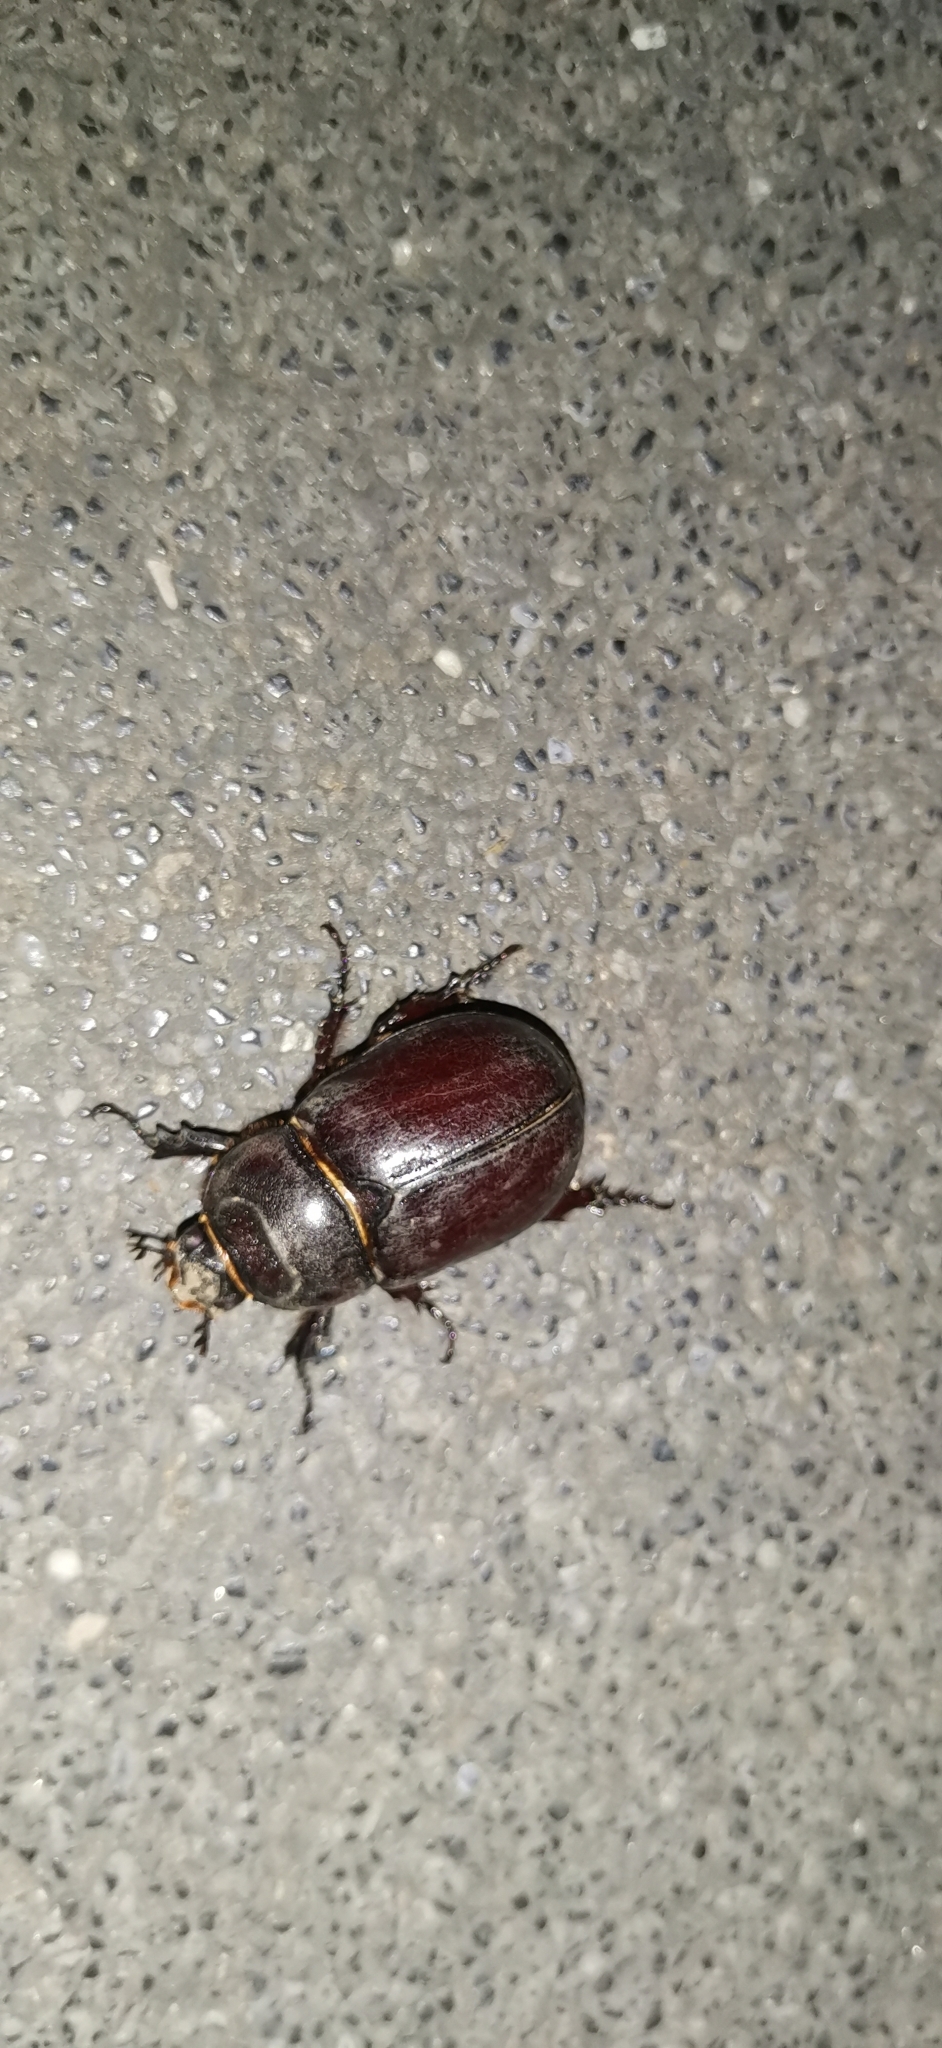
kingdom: Animalia
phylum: Arthropoda
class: Insecta
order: Coleoptera
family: Scarabaeidae
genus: Oryctes
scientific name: Oryctes nasicornis
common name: European rhinoceros beetle
